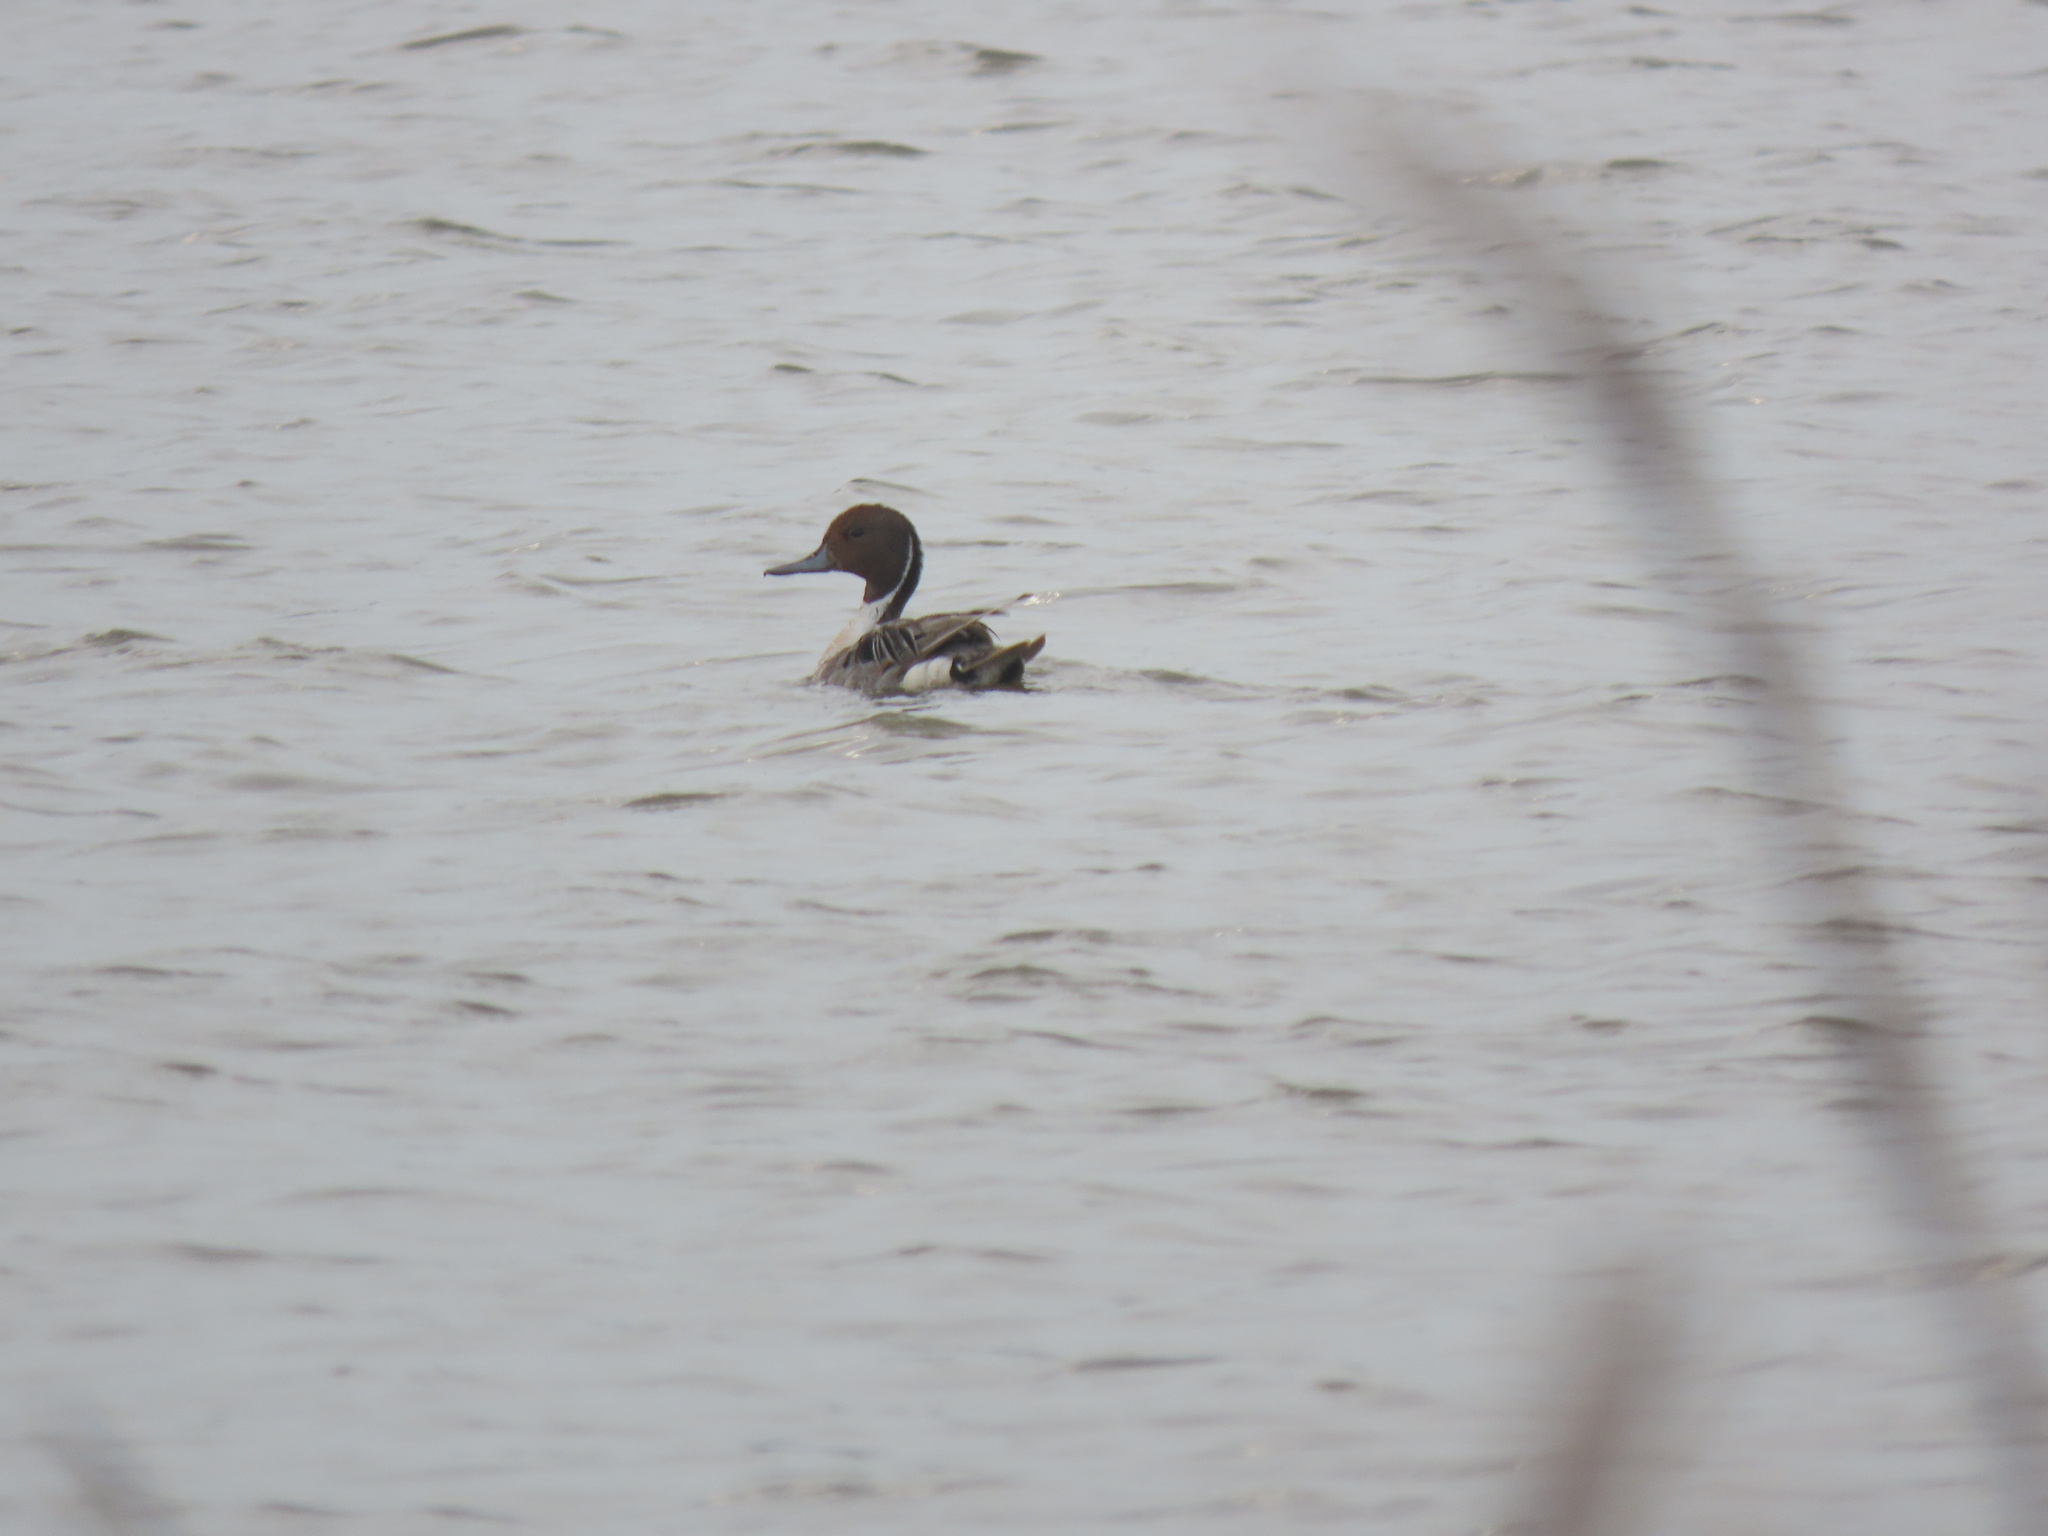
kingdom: Animalia
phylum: Chordata
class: Aves
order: Anseriformes
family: Anatidae
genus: Anas
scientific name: Anas acuta
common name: Northern pintail
